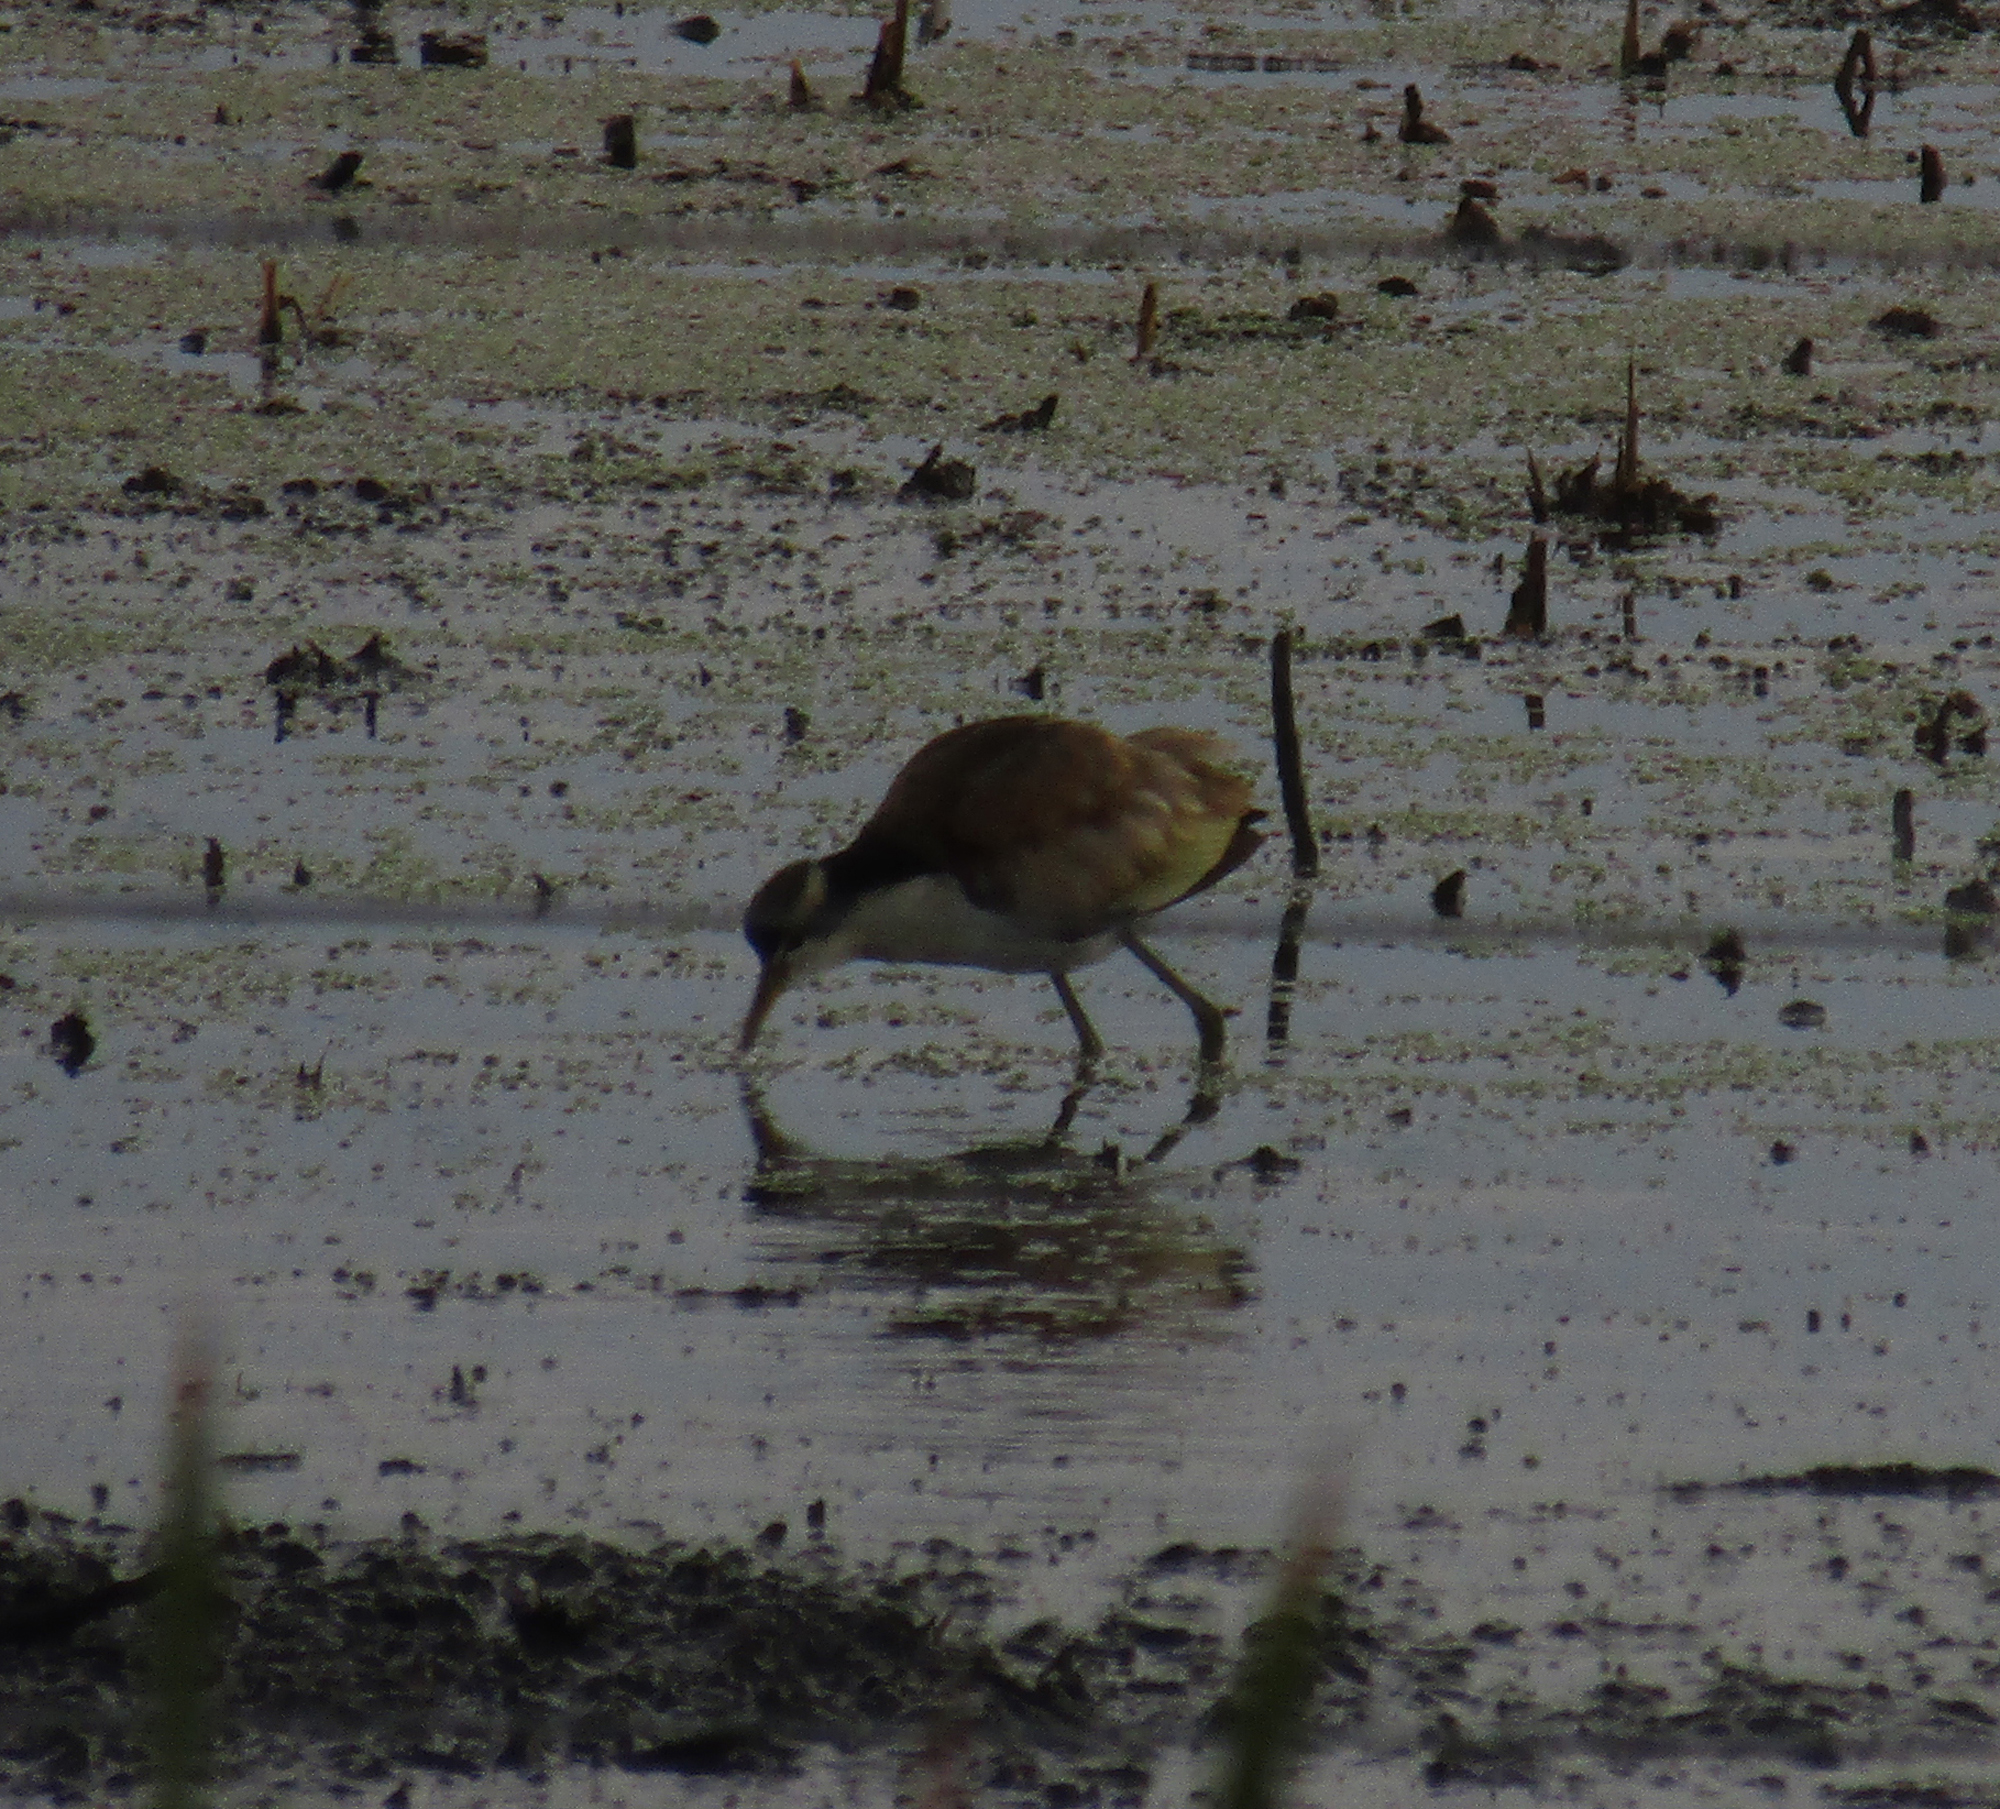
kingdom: Animalia
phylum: Chordata
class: Aves
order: Charadriiformes
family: Jacanidae
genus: Jacana
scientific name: Jacana jacana
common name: Wattled jacana
